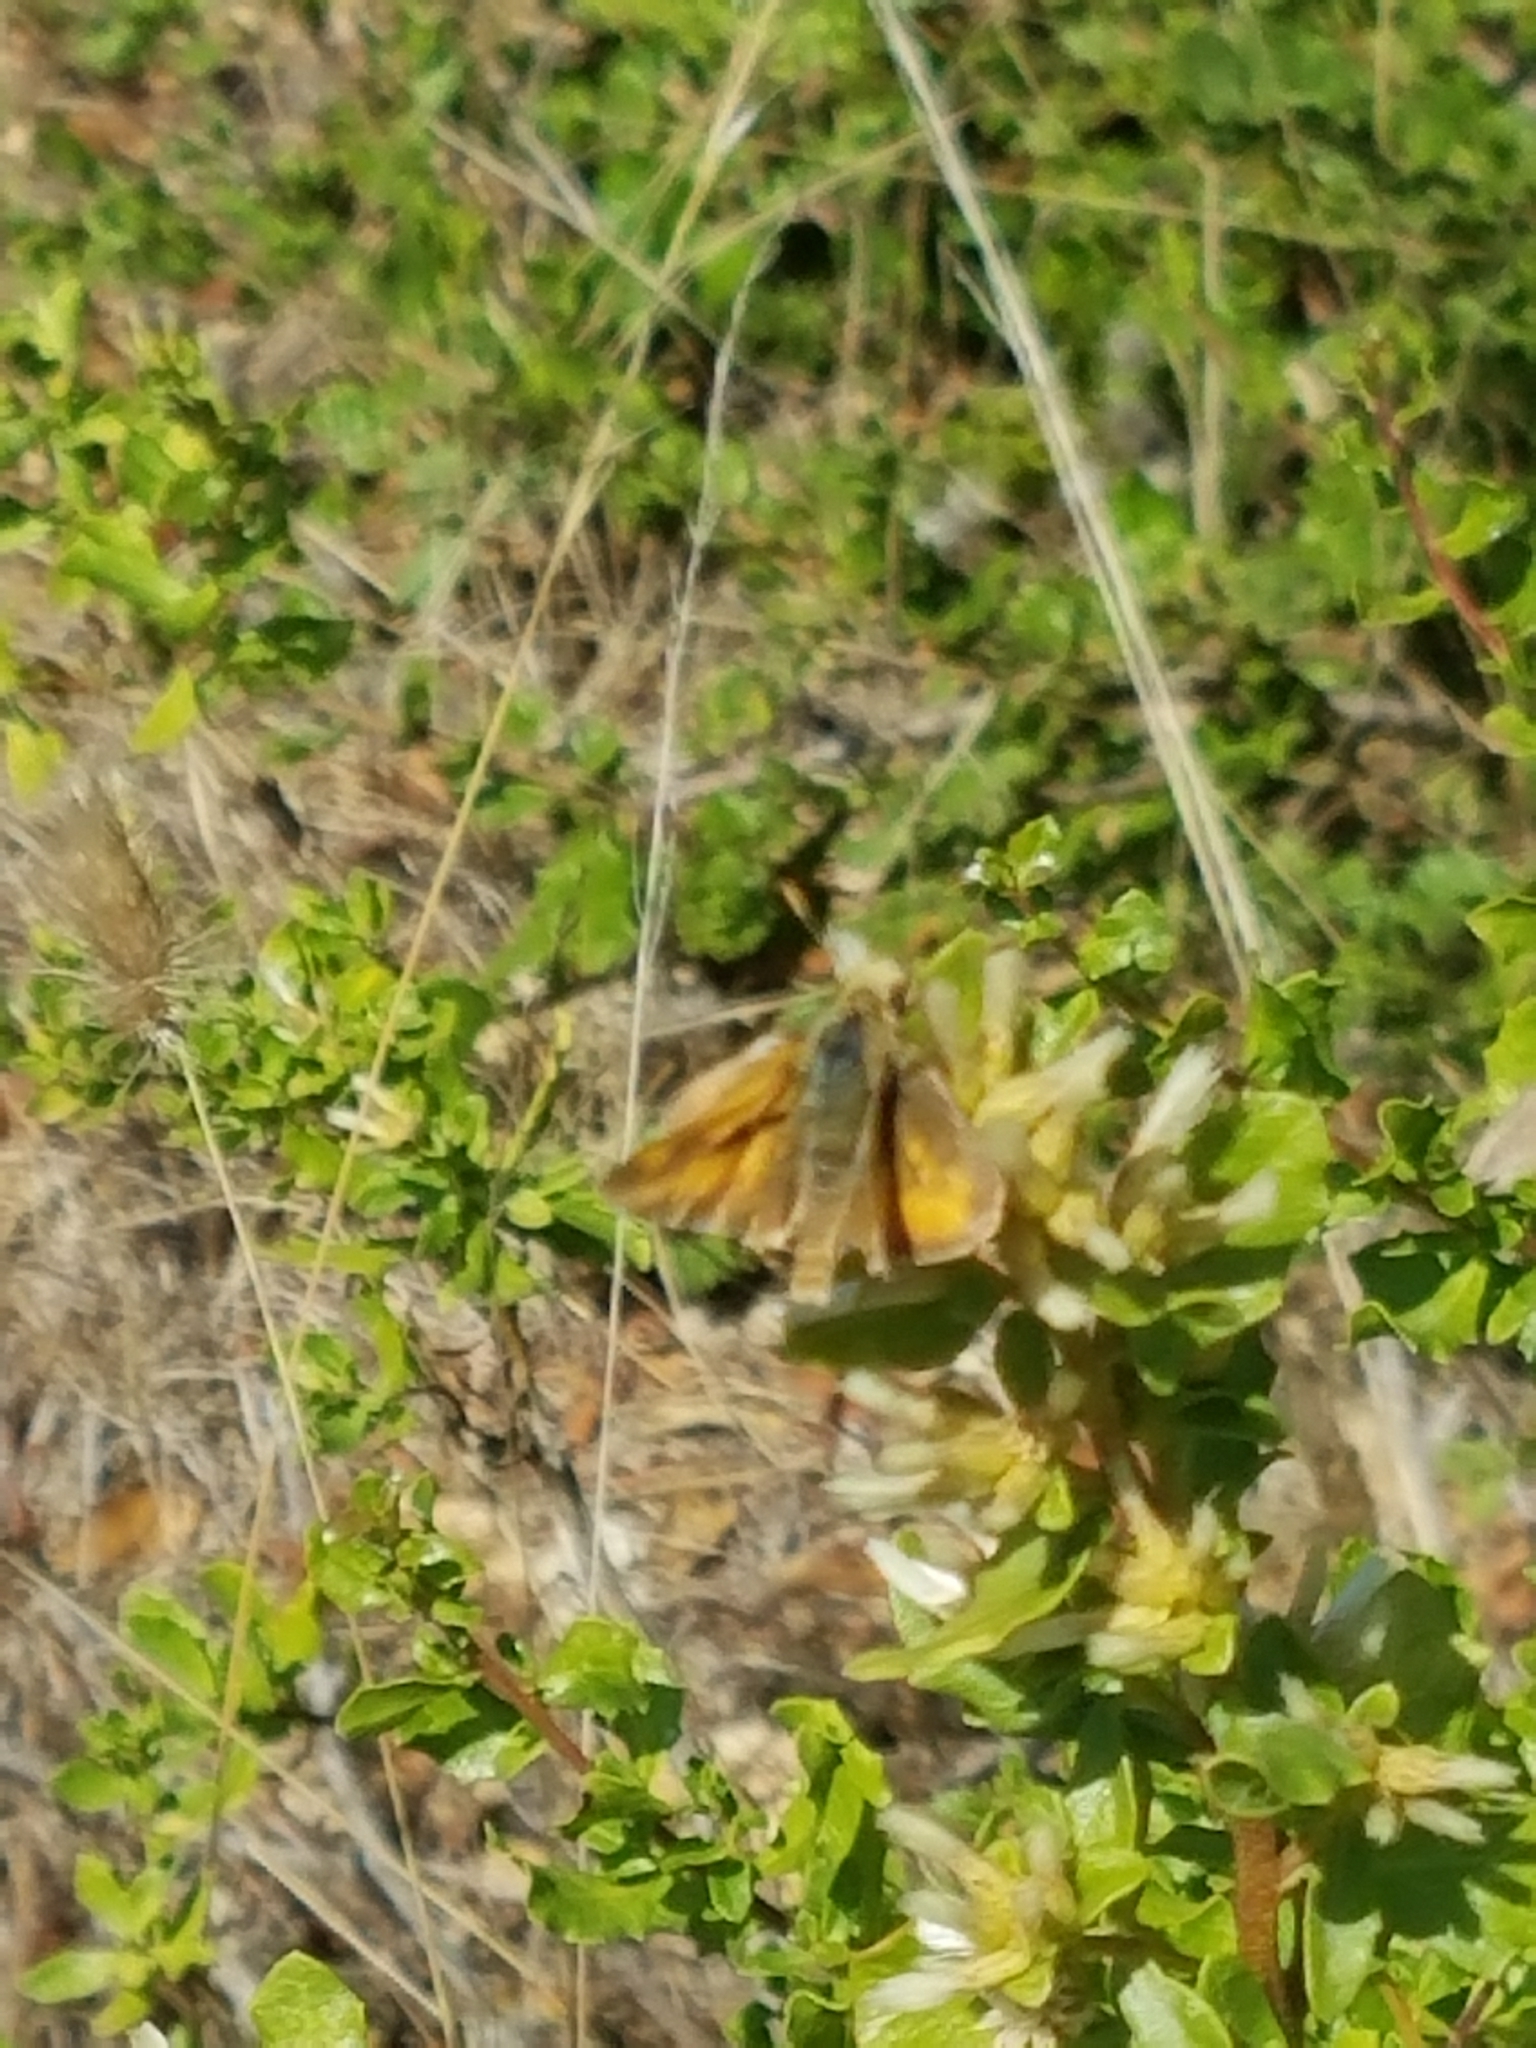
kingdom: Animalia
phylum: Arthropoda
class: Insecta
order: Lepidoptera
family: Hesperiidae
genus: Ochlodes
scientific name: Ochlodes sylvanoides
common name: Woodland skipper
